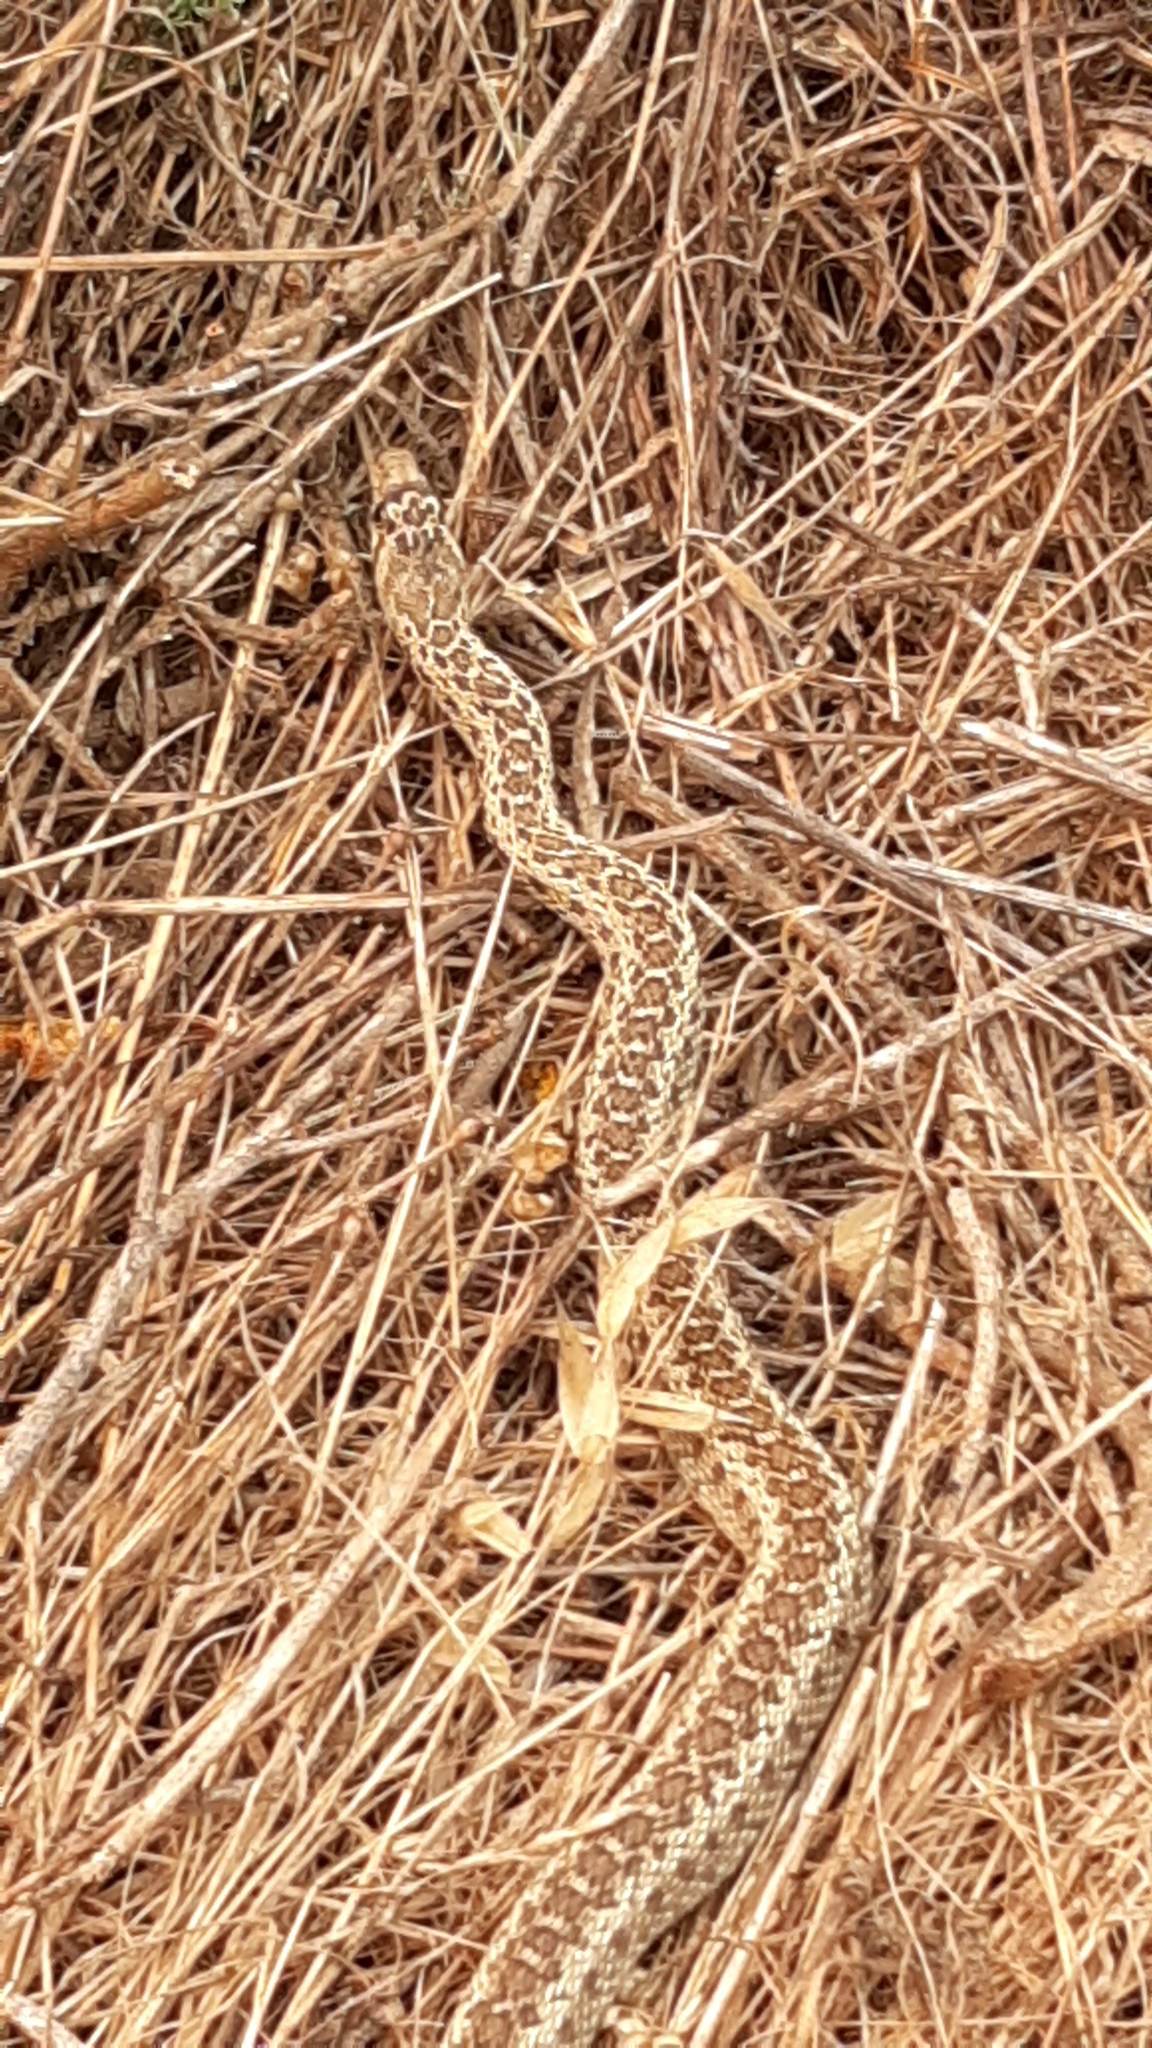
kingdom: Animalia
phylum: Chordata
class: Squamata
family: Colubridae
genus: Pituophis
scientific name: Pituophis catenifer
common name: Gopher snake
